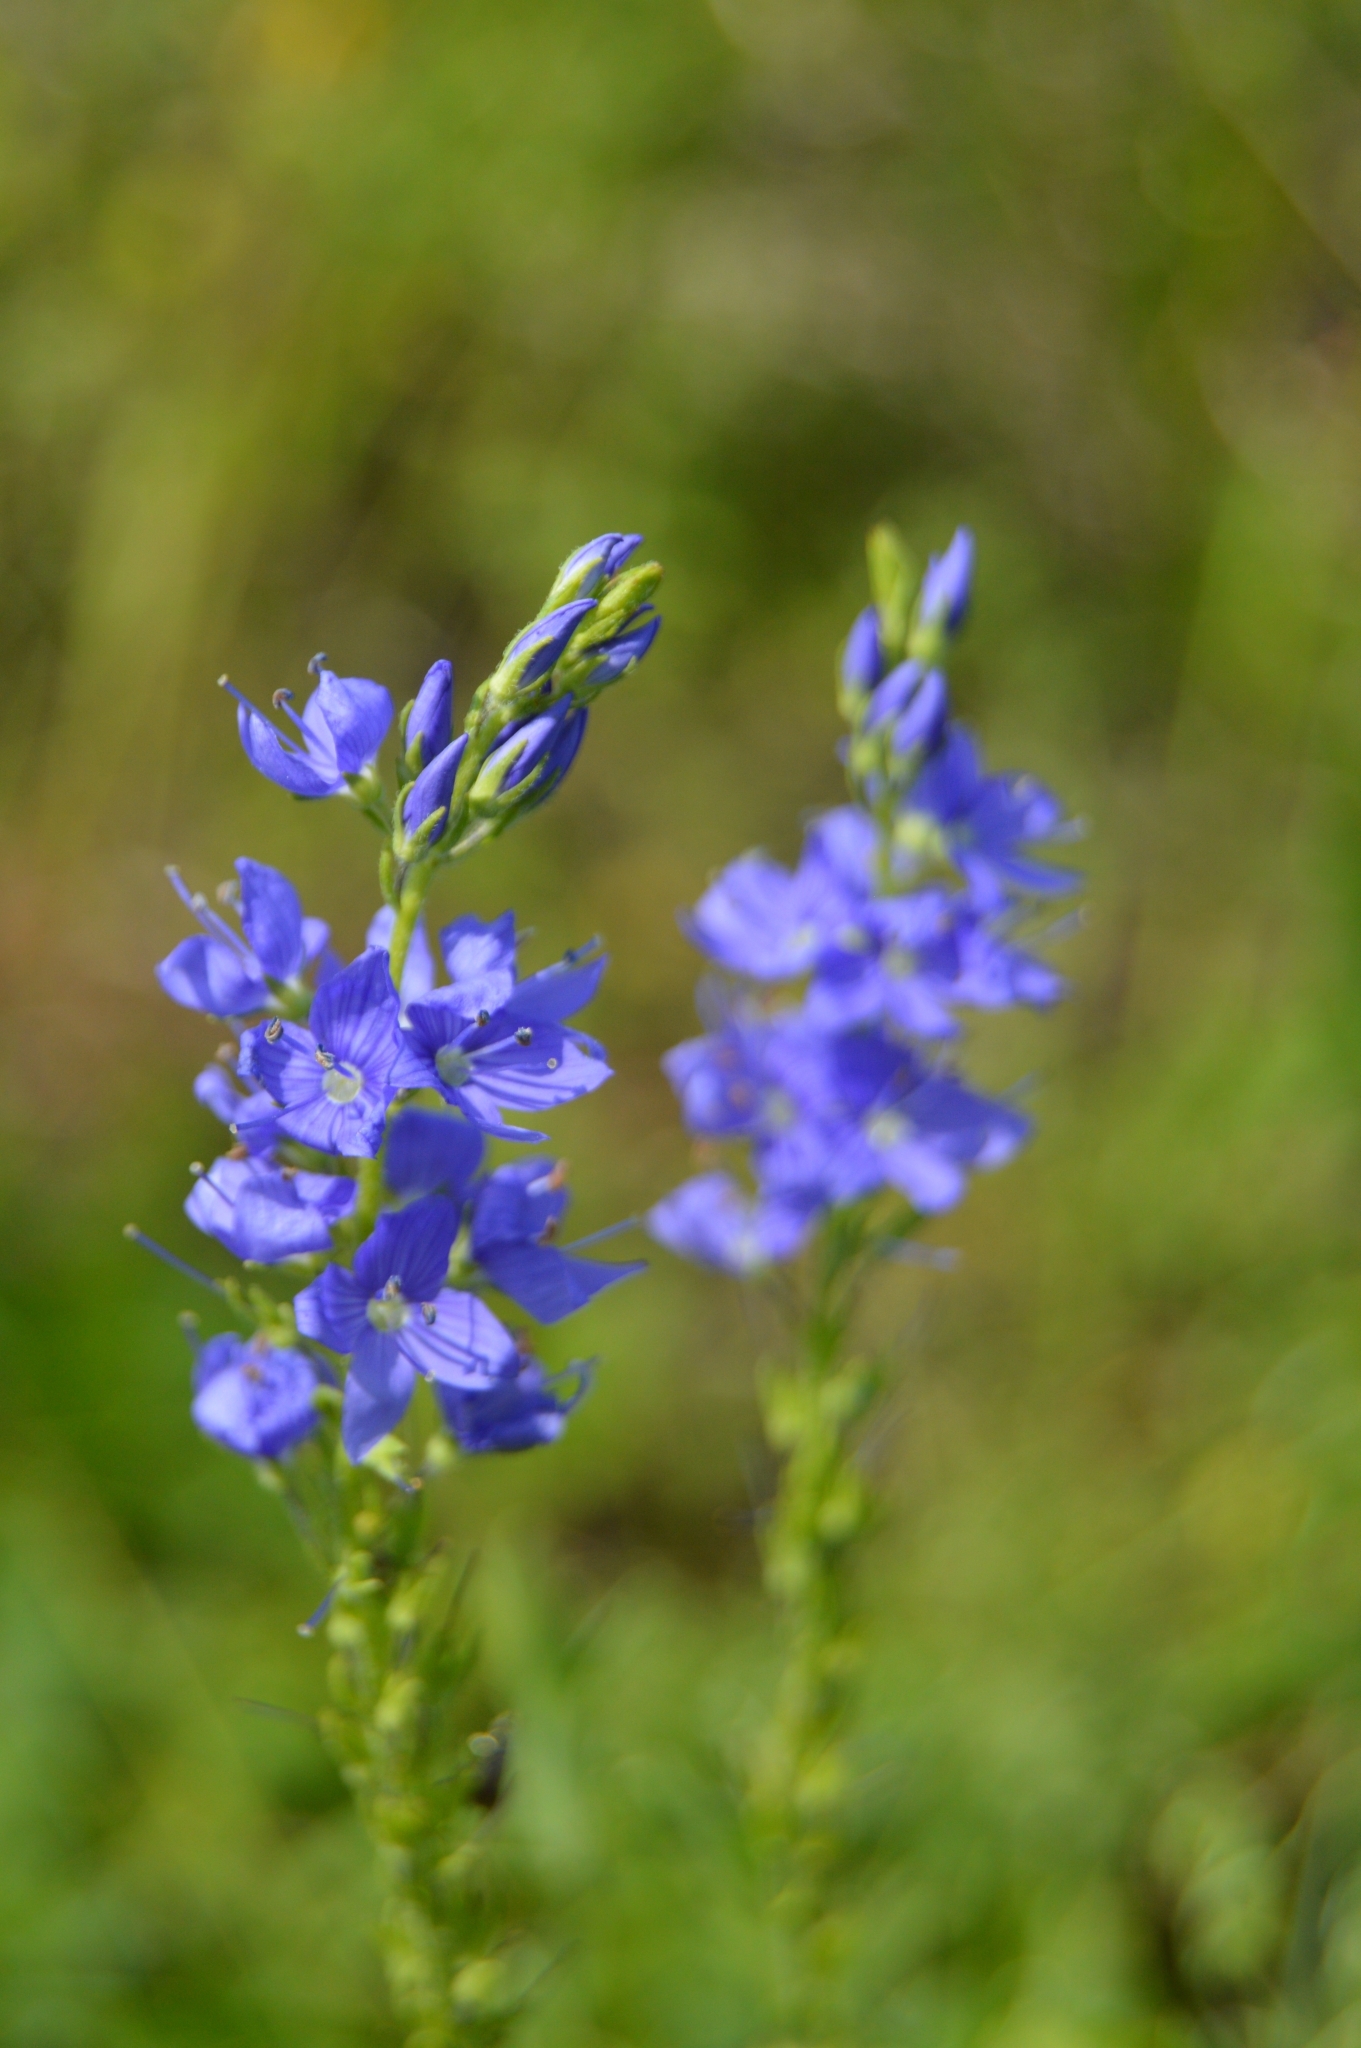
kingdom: Plantae
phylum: Tracheophyta
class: Magnoliopsida
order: Lamiales
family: Plantaginaceae
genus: Veronica
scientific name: Veronica teucrium
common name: Large speedwell
